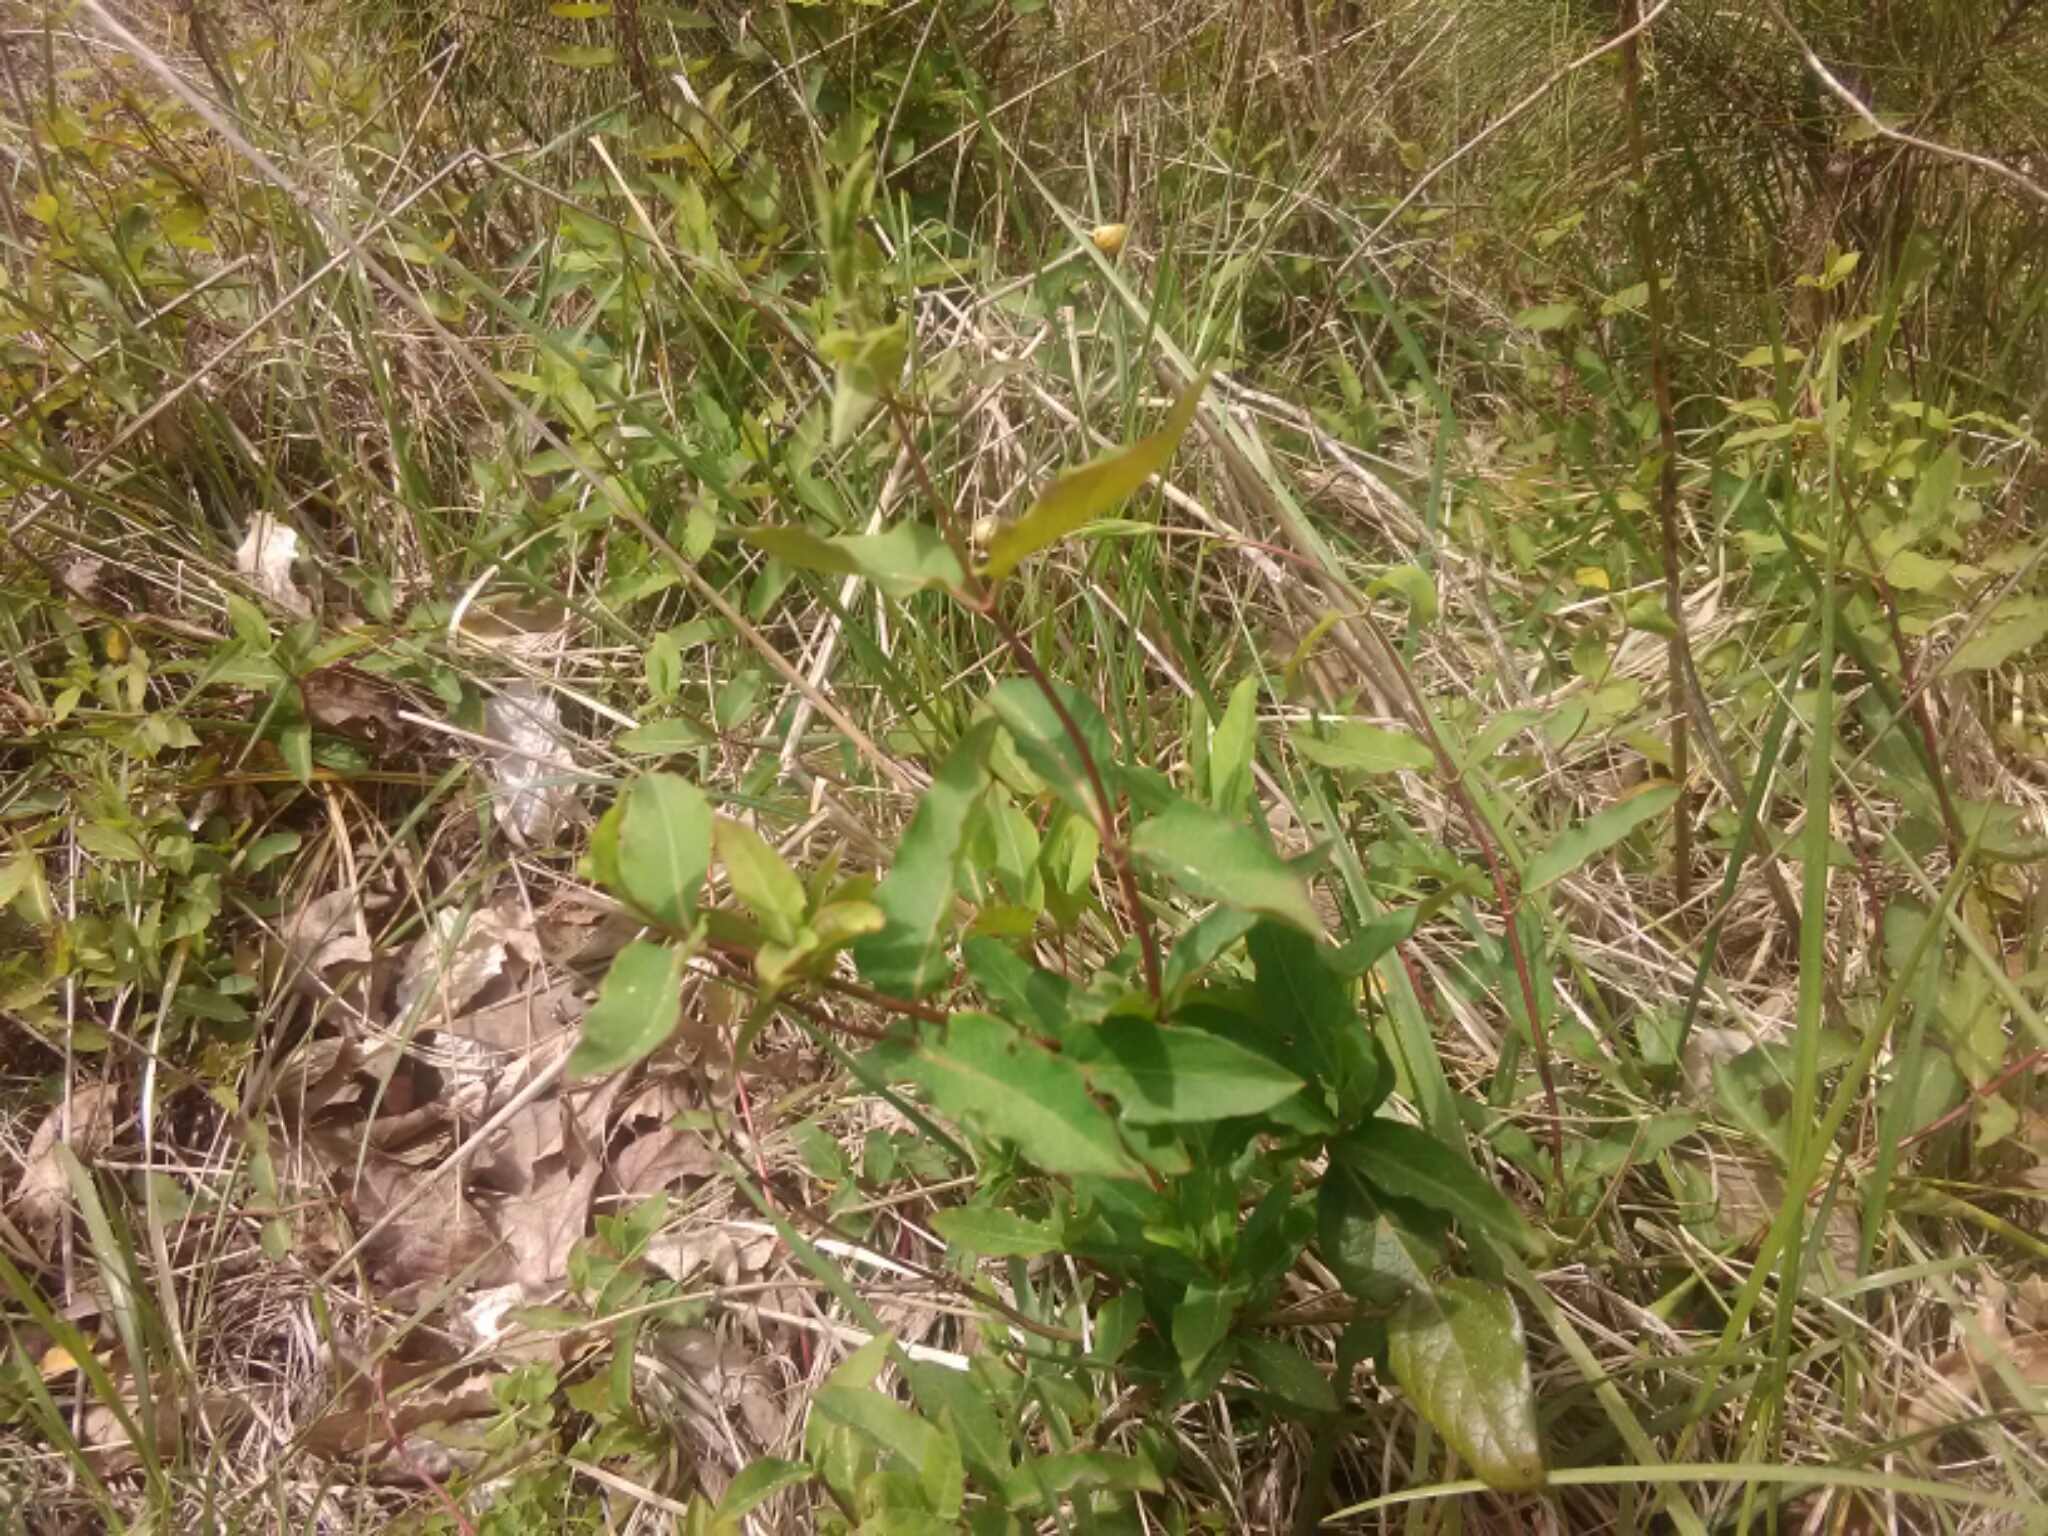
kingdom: Plantae
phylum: Tracheophyta
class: Magnoliopsida
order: Dipsacales
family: Caprifoliaceae
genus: Lonicera
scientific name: Lonicera japonica
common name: Japanese honeysuckle
